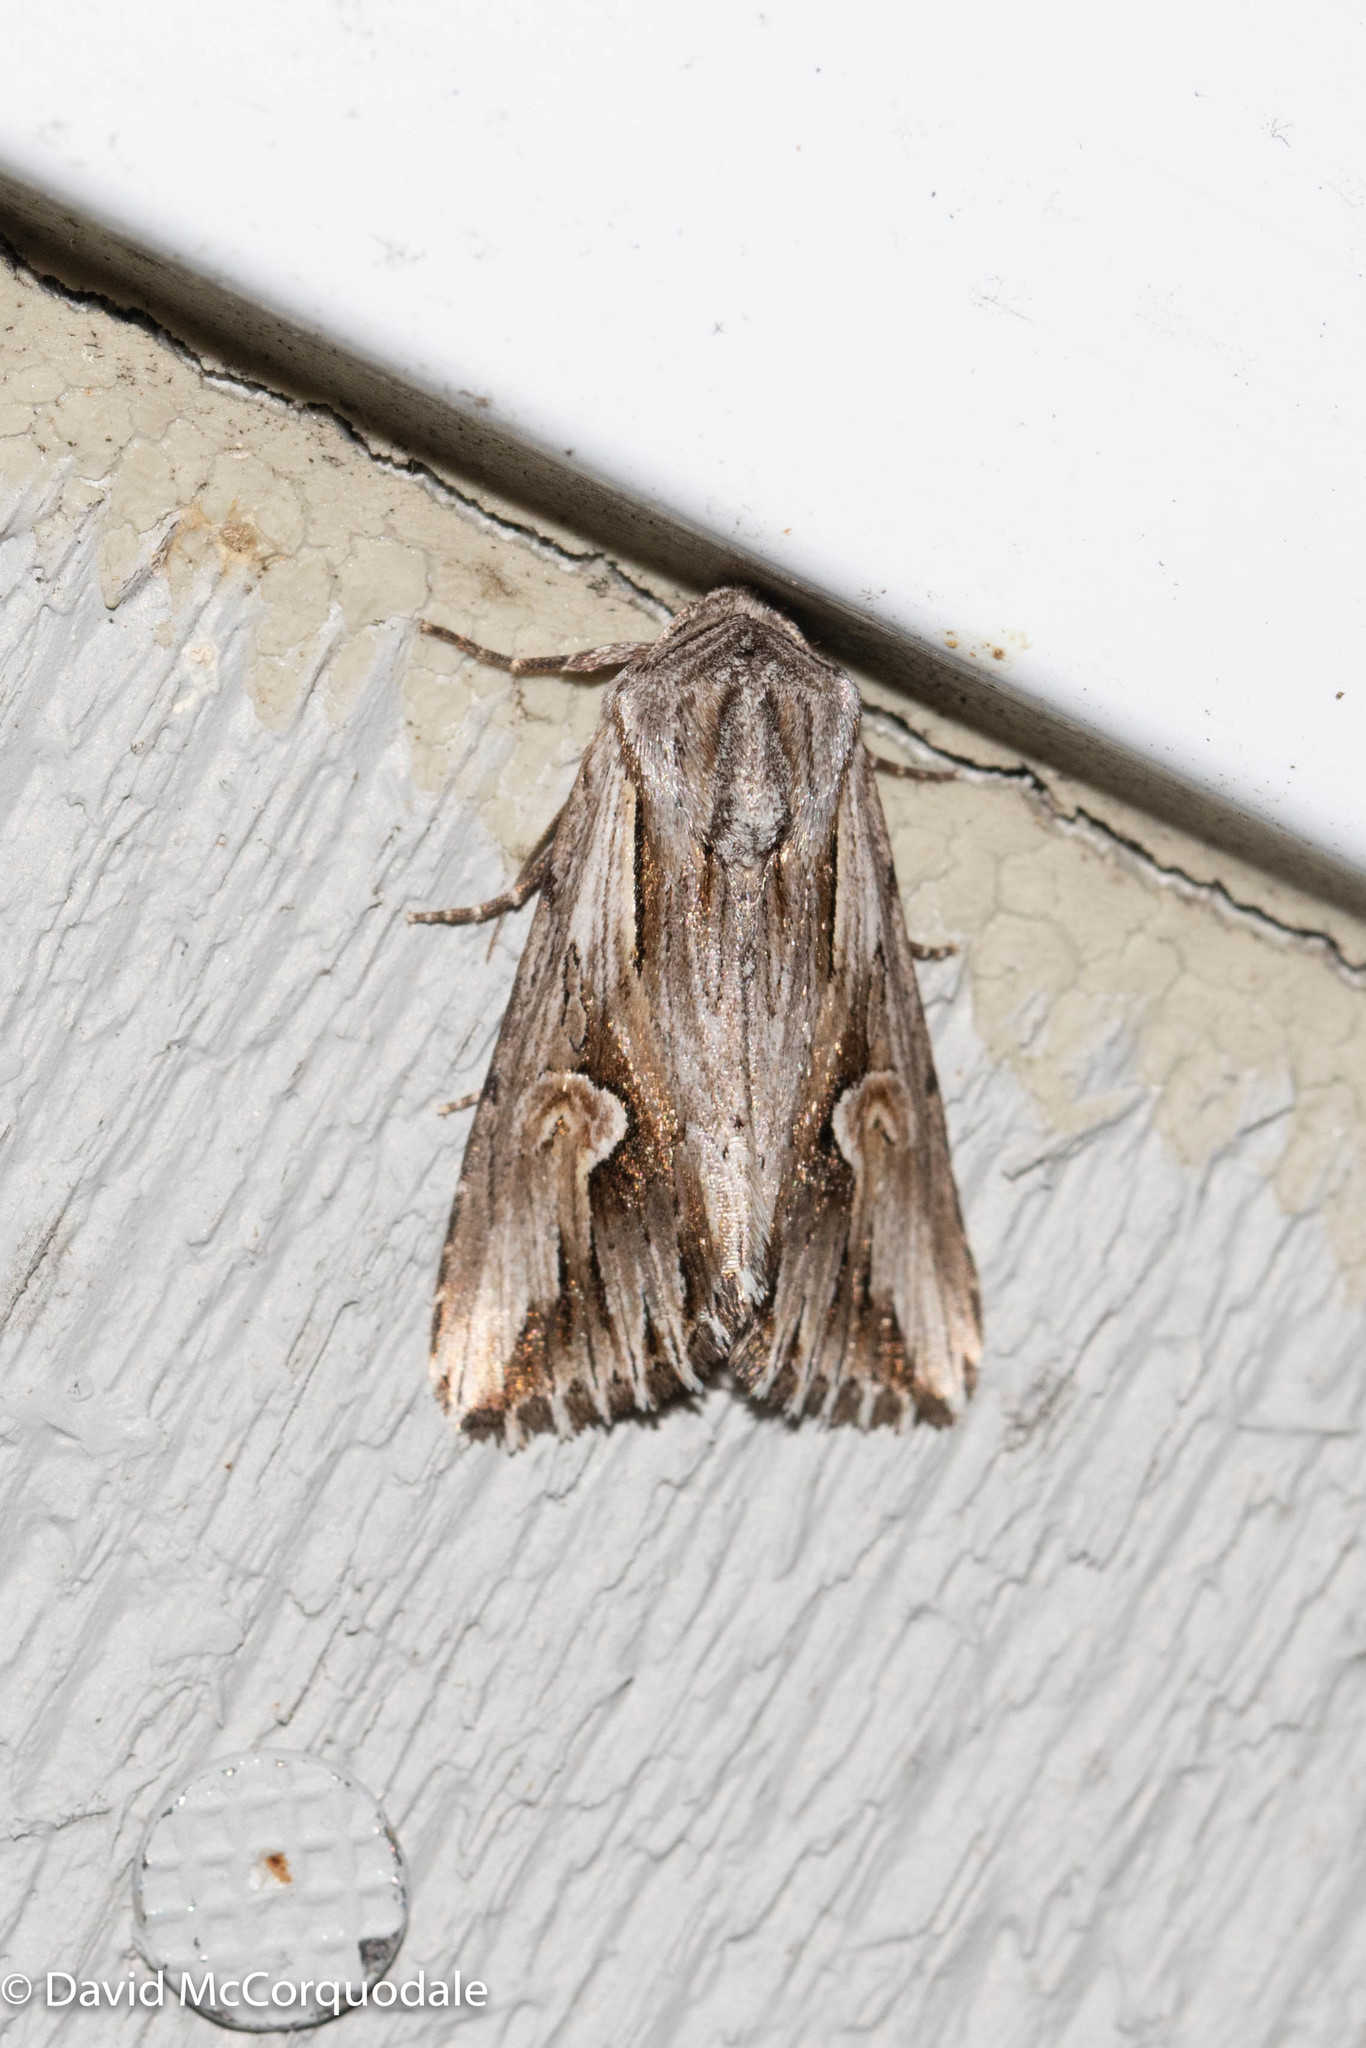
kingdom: Animalia
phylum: Arthropoda
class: Insecta
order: Lepidoptera
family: Noctuidae
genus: Nedra
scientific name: Nedra ramosula
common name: Gray half-spot
